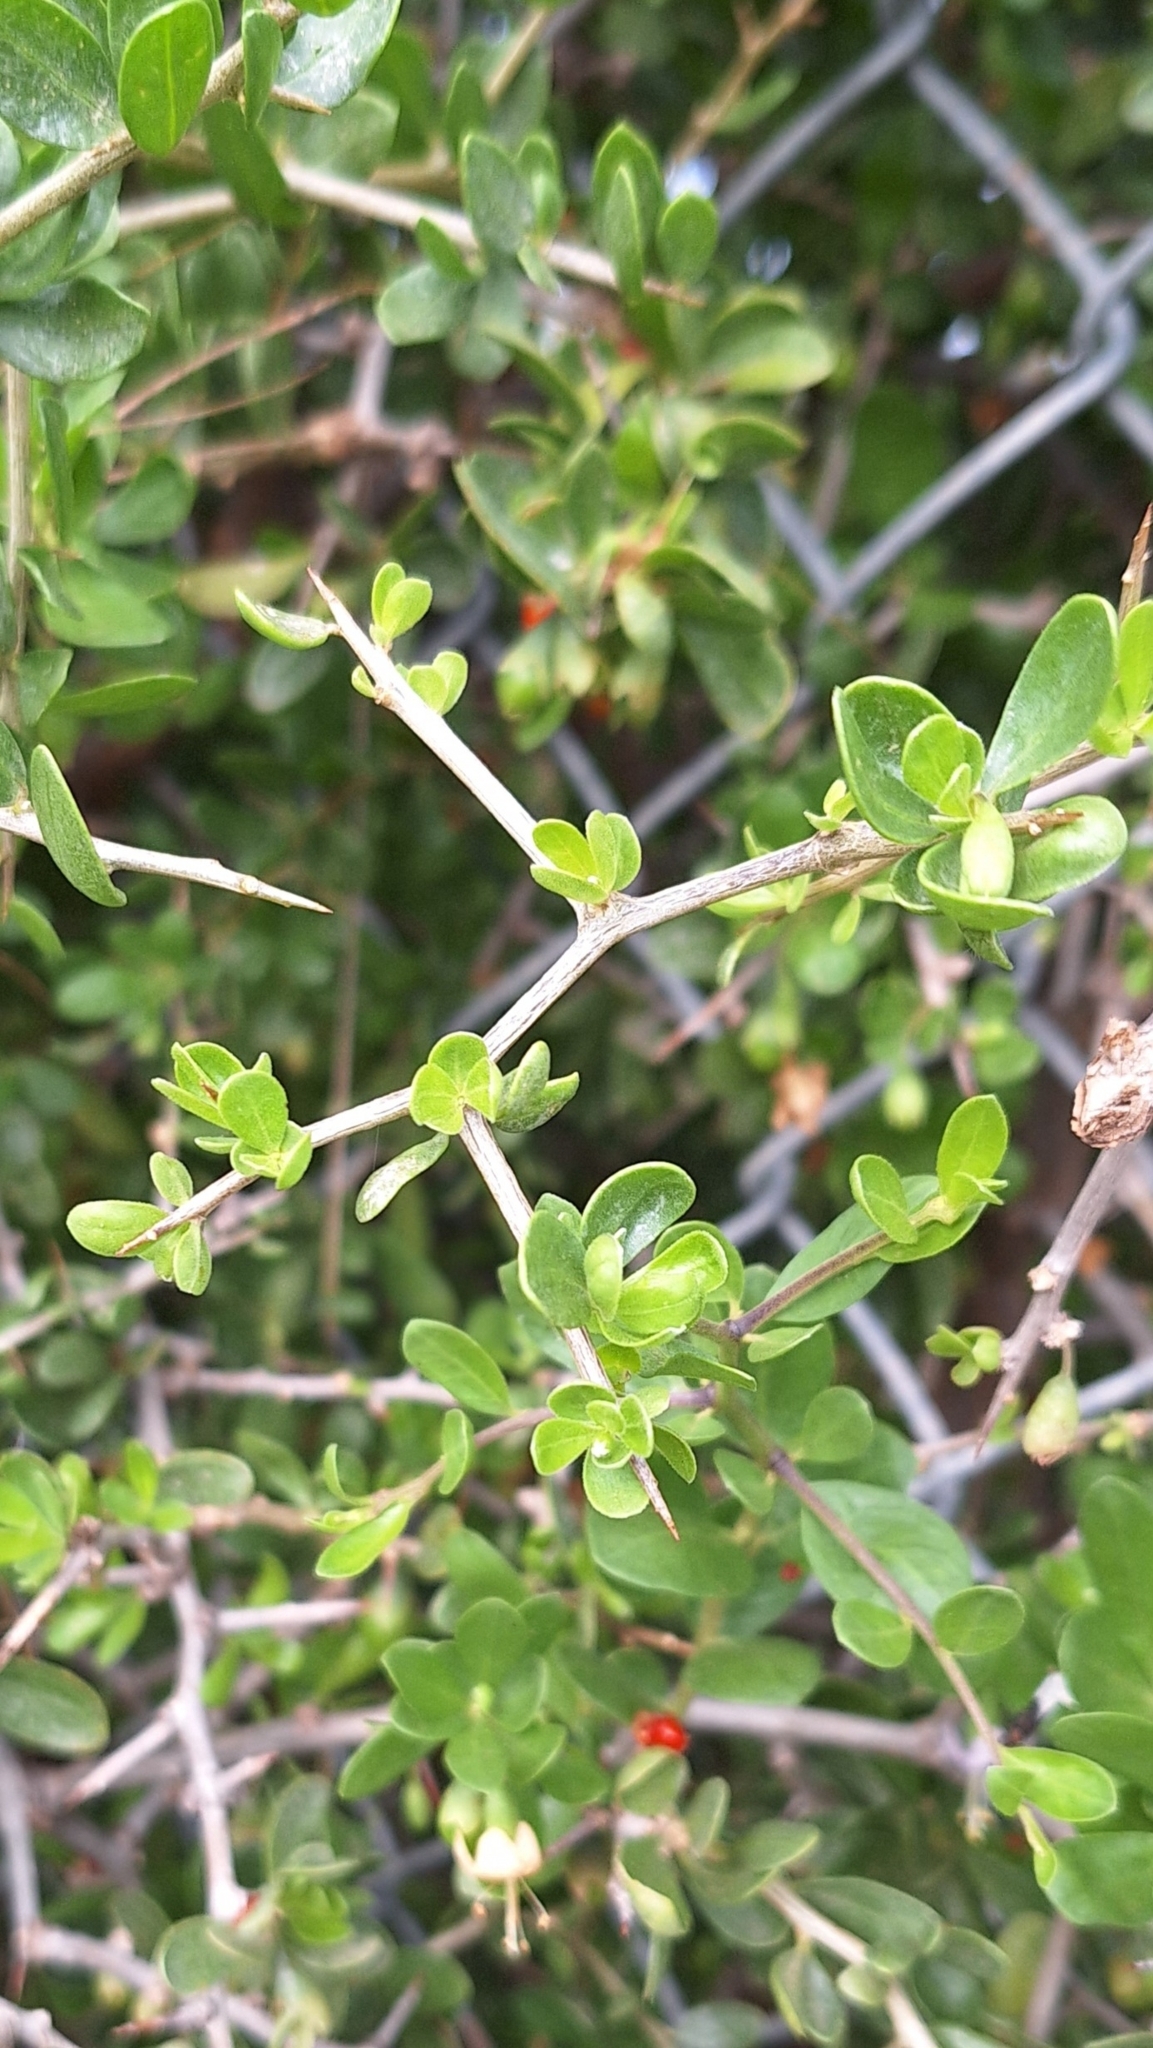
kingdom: Plantae
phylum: Tracheophyta
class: Magnoliopsida
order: Solanales
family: Solanaceae
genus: Lycium
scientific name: Lycium ferocissimum
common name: African boxthorn
